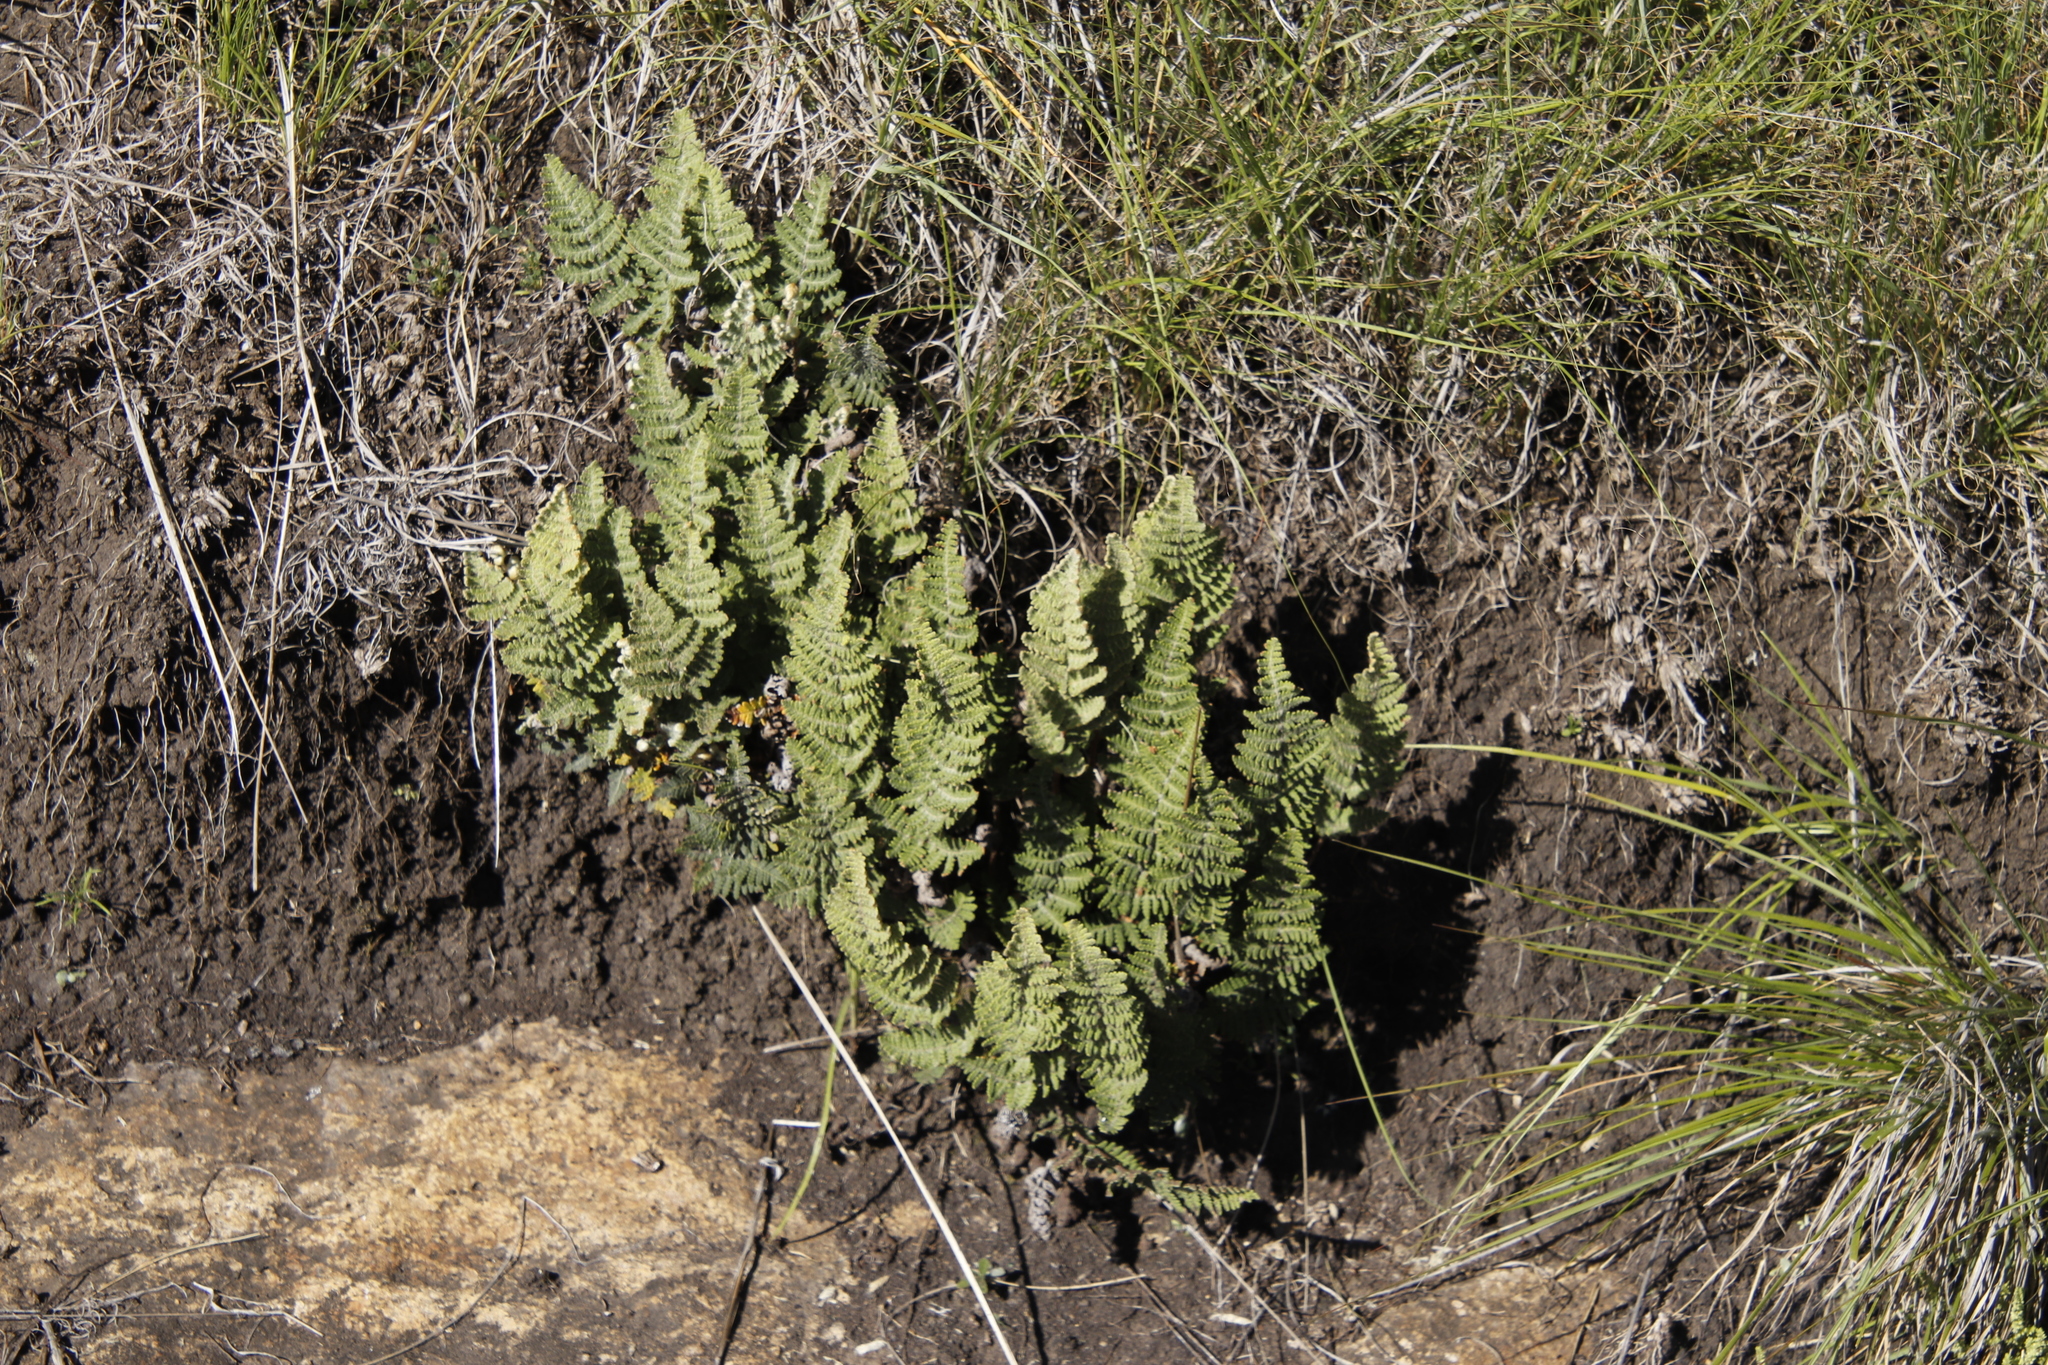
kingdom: Plantae
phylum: Tracheophyta
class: Polypodiopsida
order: Polypodiales
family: Pteridaceae
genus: Cheilanthes
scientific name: Cheilanthes eckloniana
